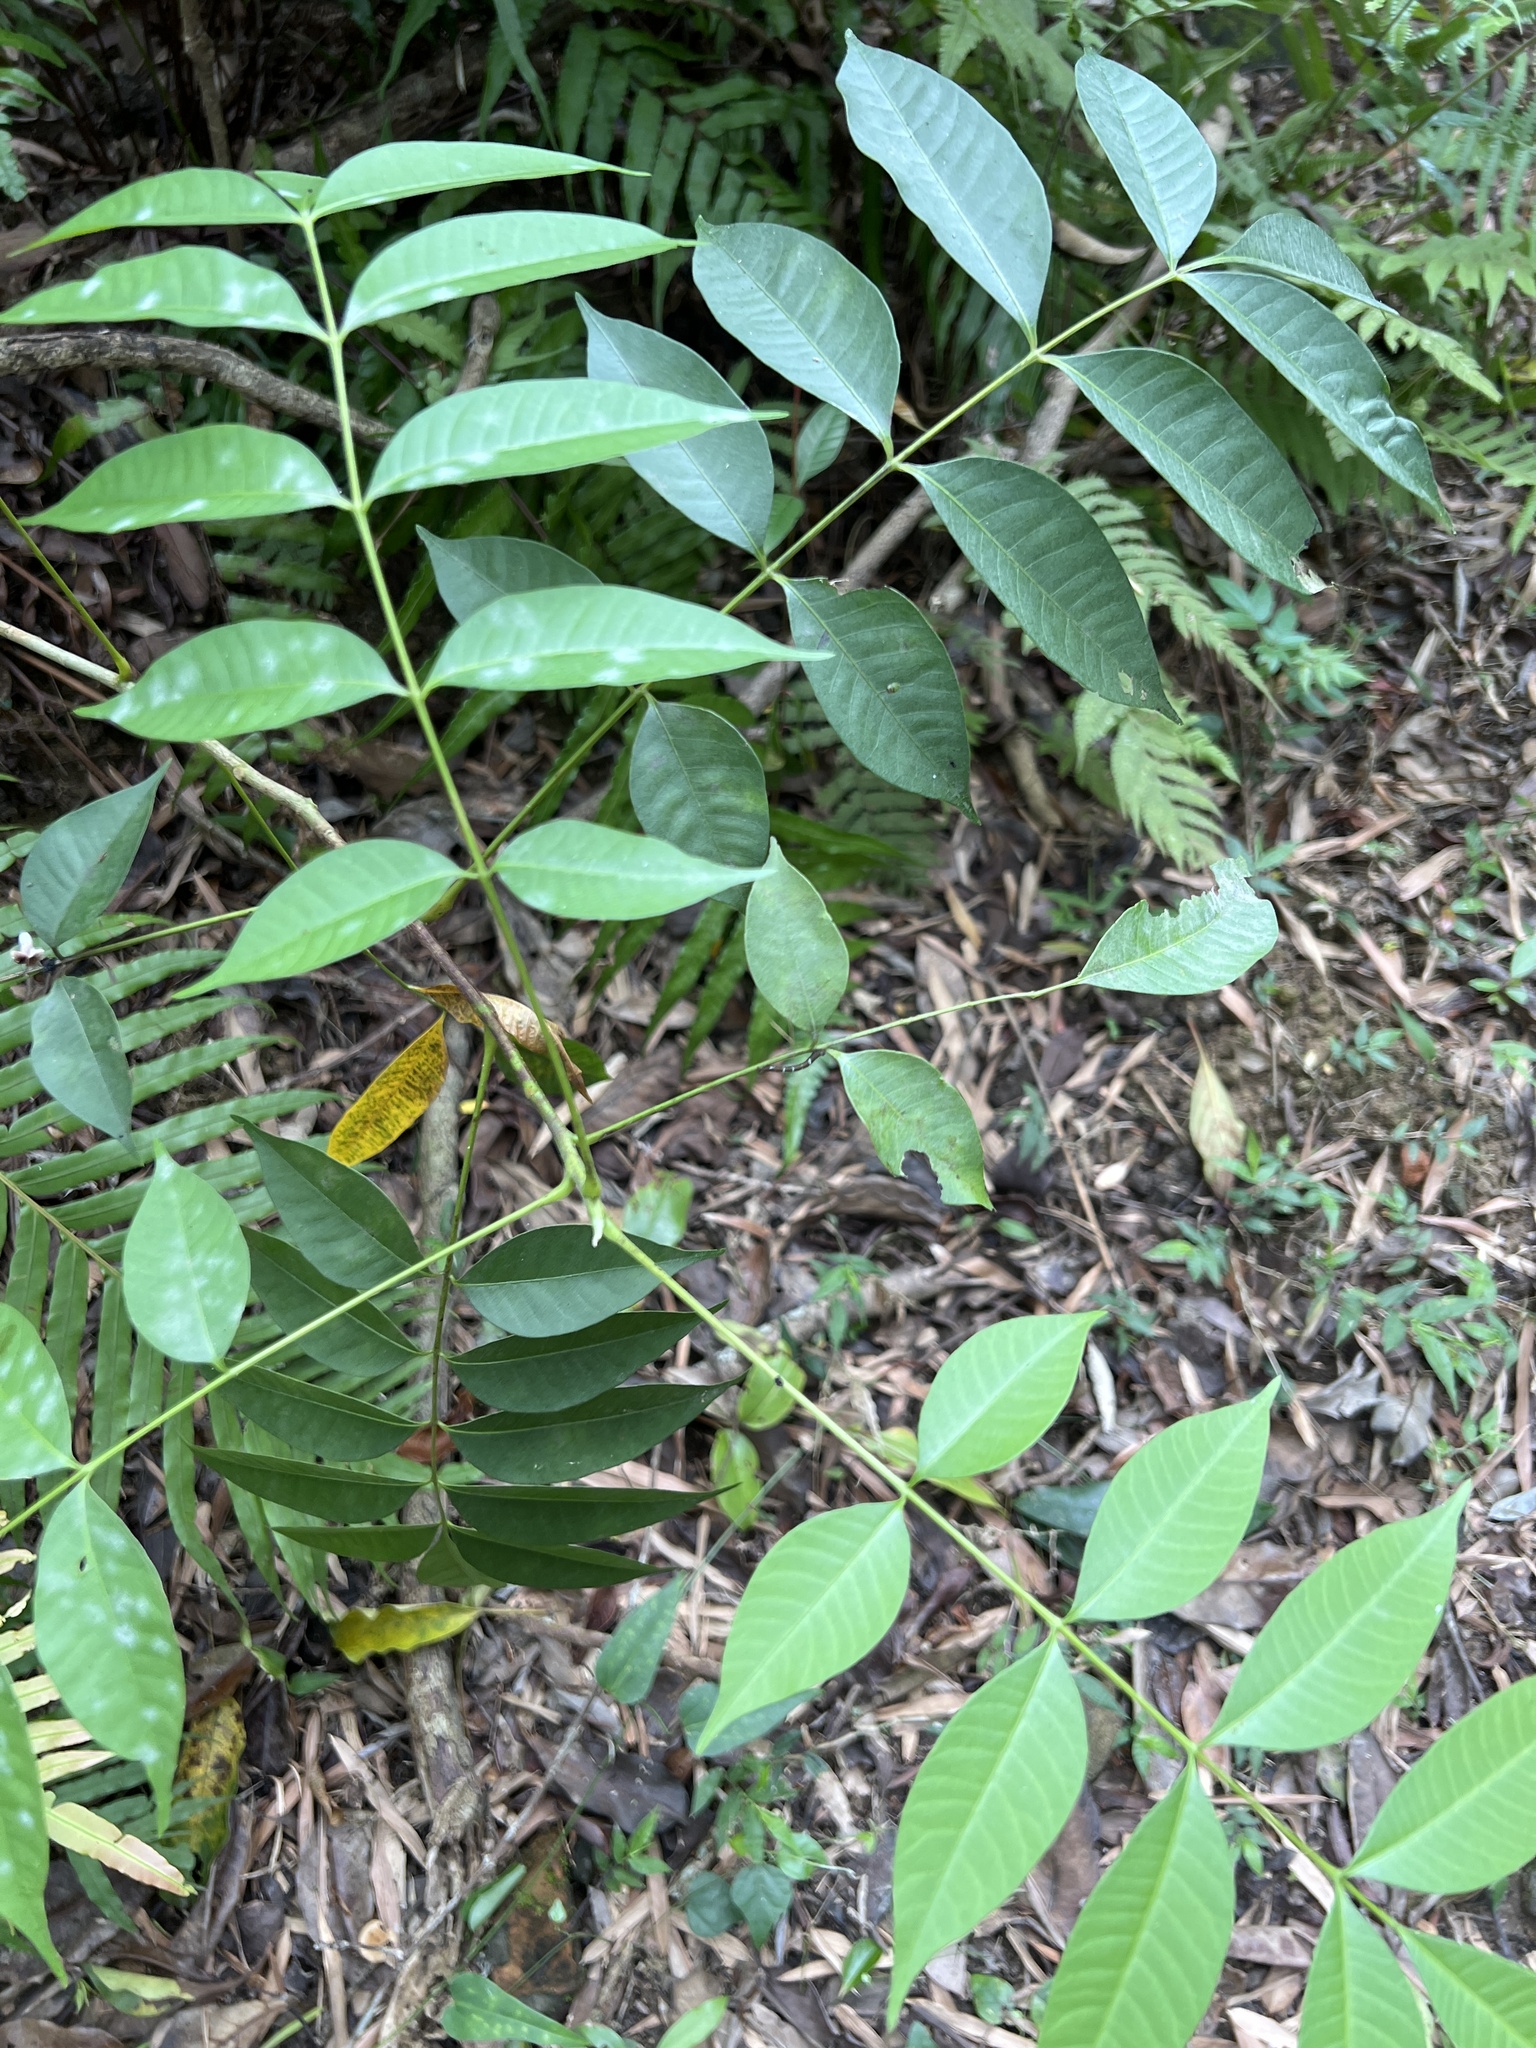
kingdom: Plantae
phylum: Tracheophyta
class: Magnoliopsida
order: Sapindales
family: Anacardiaceae
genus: Toxicodendron
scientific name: Toxicodendron succedaneum
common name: Wax tree
